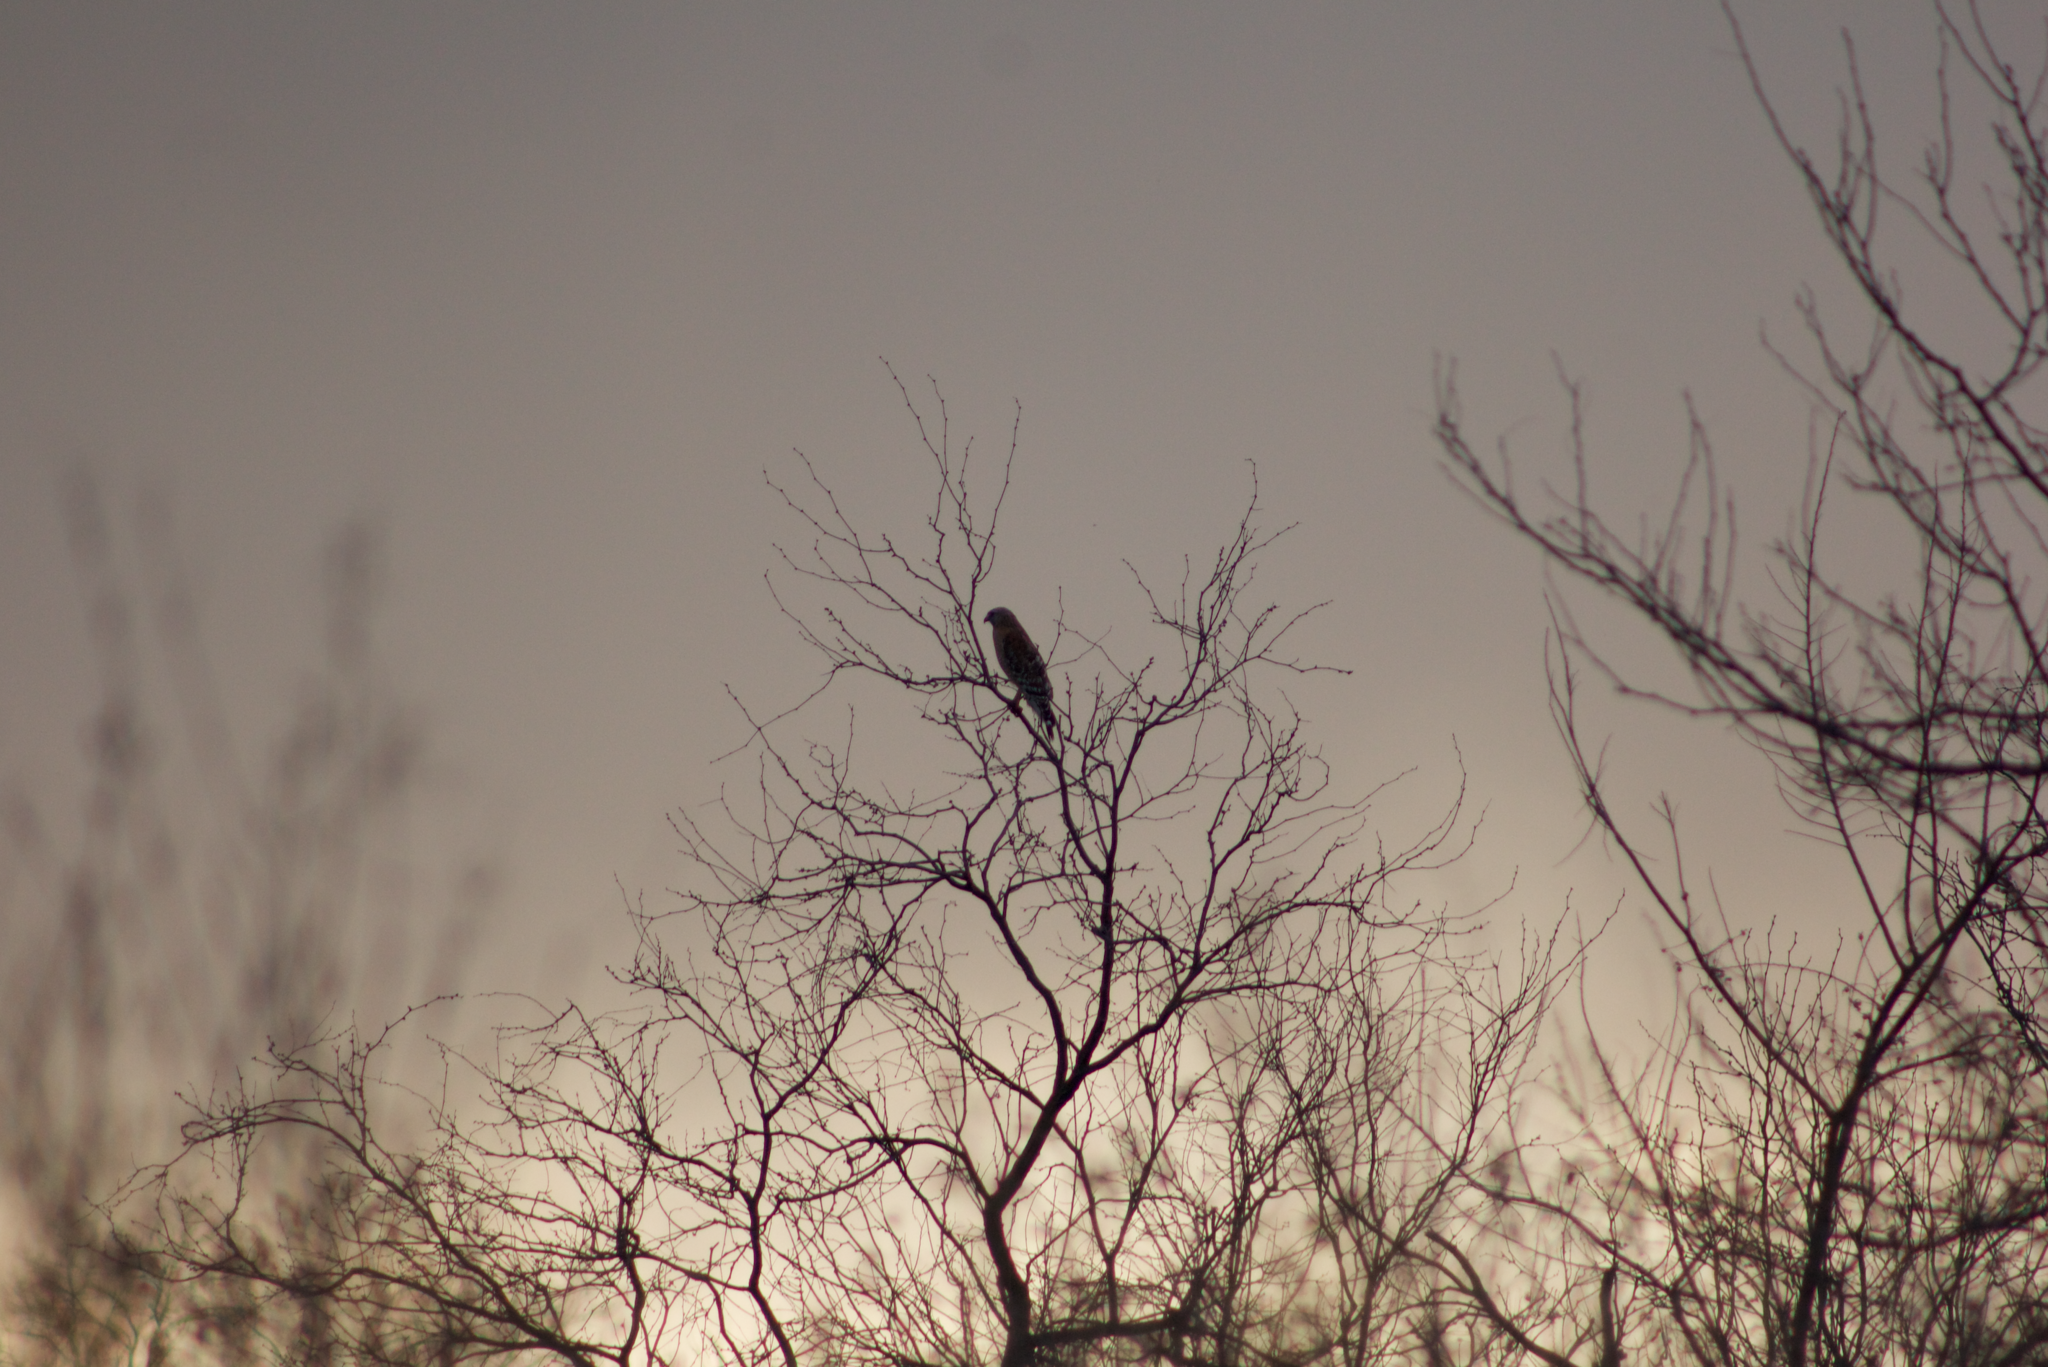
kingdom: Animalia
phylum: Chordata
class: Aves
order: Accipitriformes
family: Accipitridae
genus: Buteo
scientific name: Buteo lineatus
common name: Red-shouldered hawk
